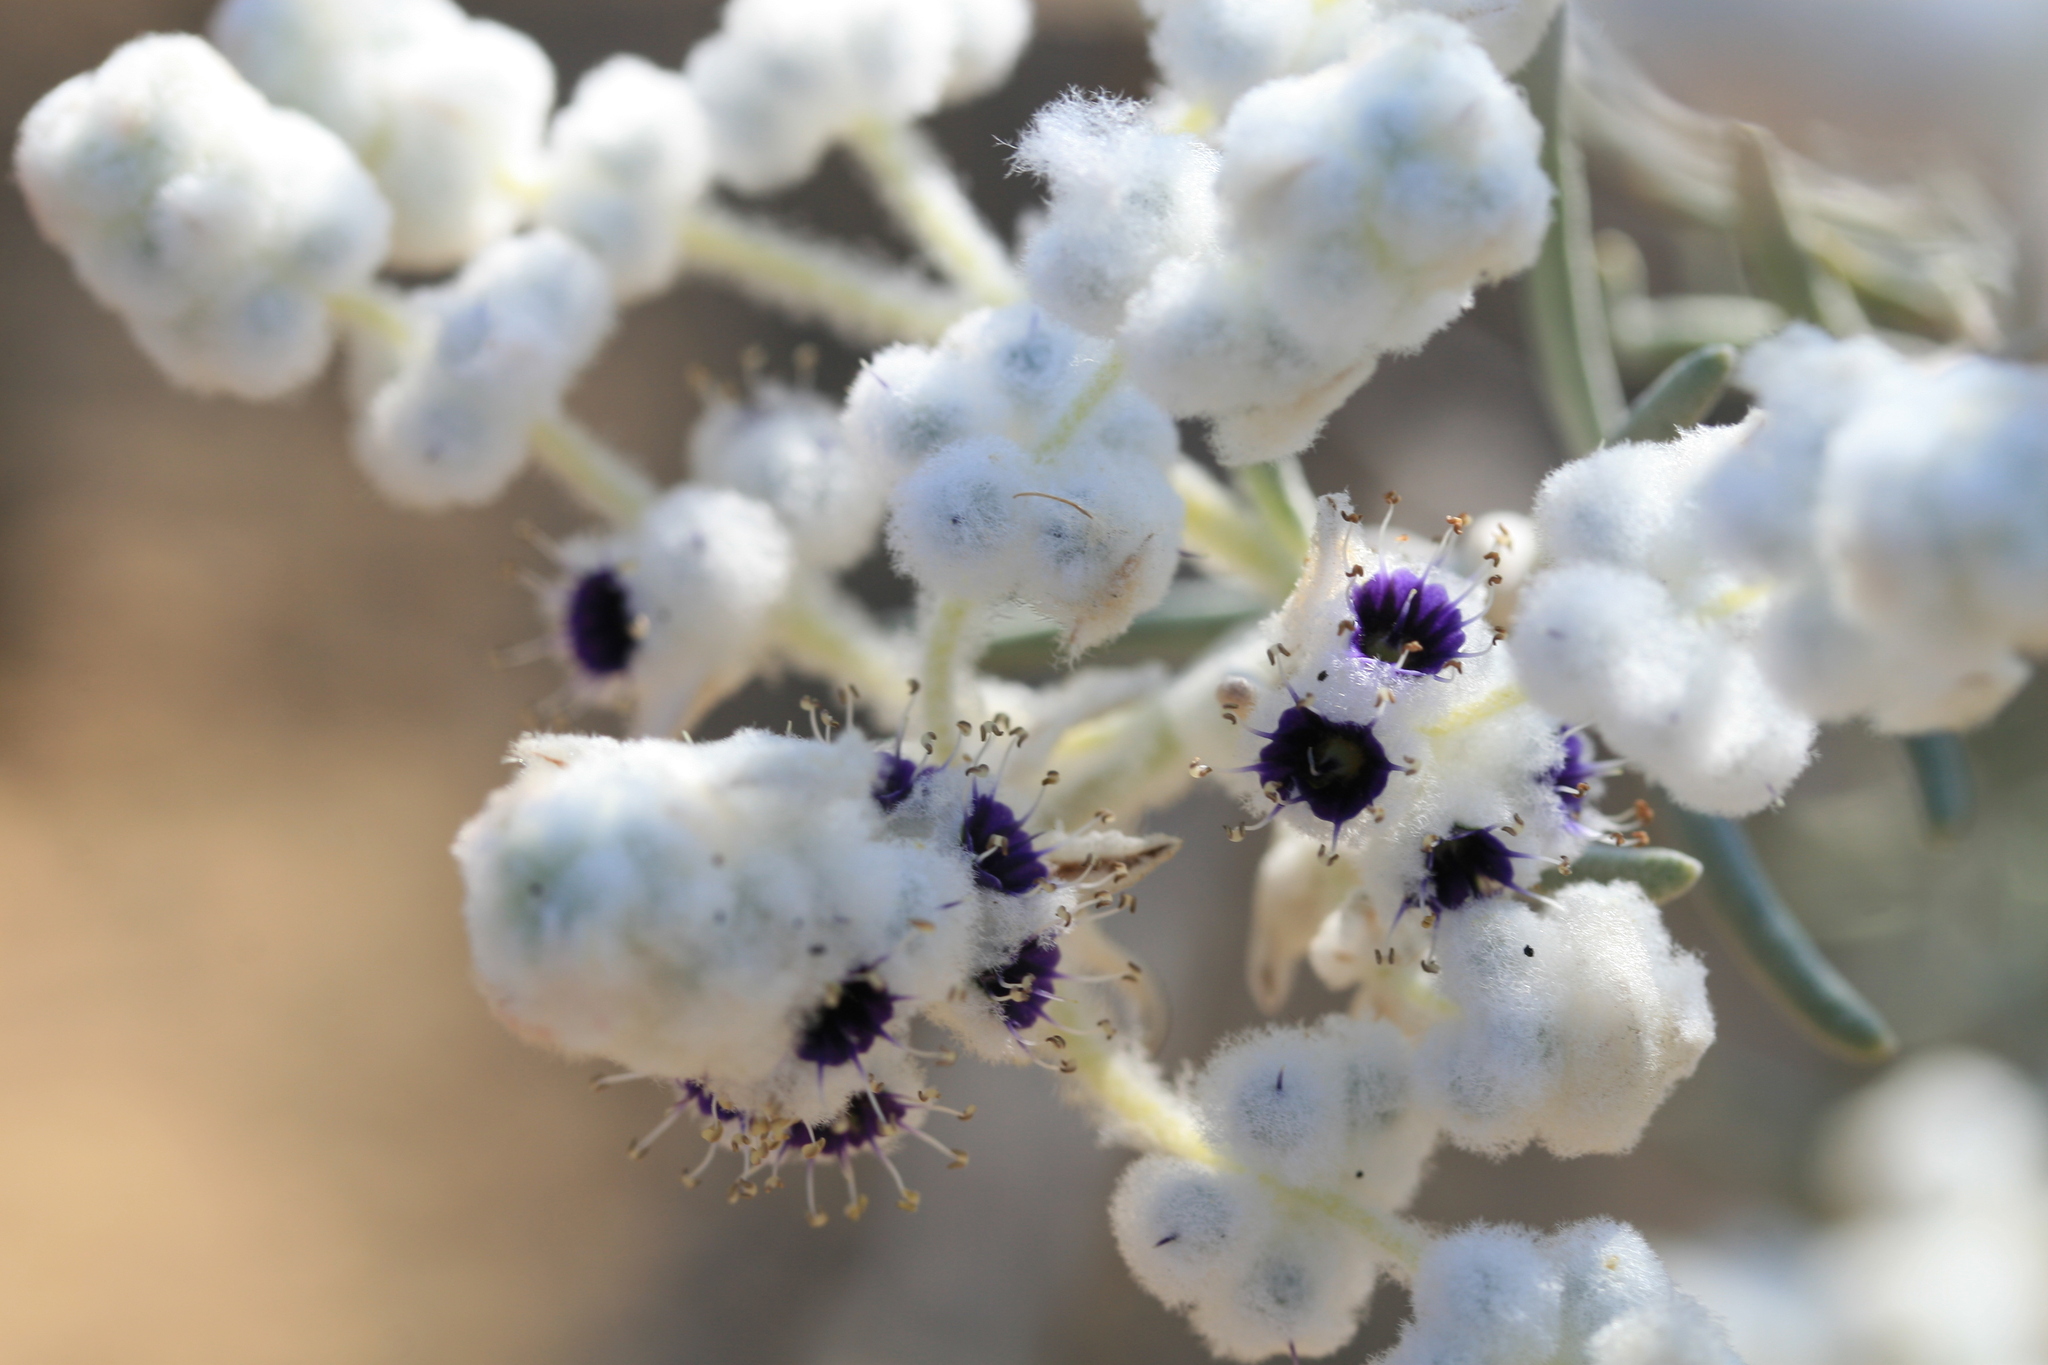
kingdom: Plantae
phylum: Tracheophyta
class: Magnoliopsida
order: Lamiales
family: Lamiaceae
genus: Lachnostachys
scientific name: Lachnostachys eriobotrya
